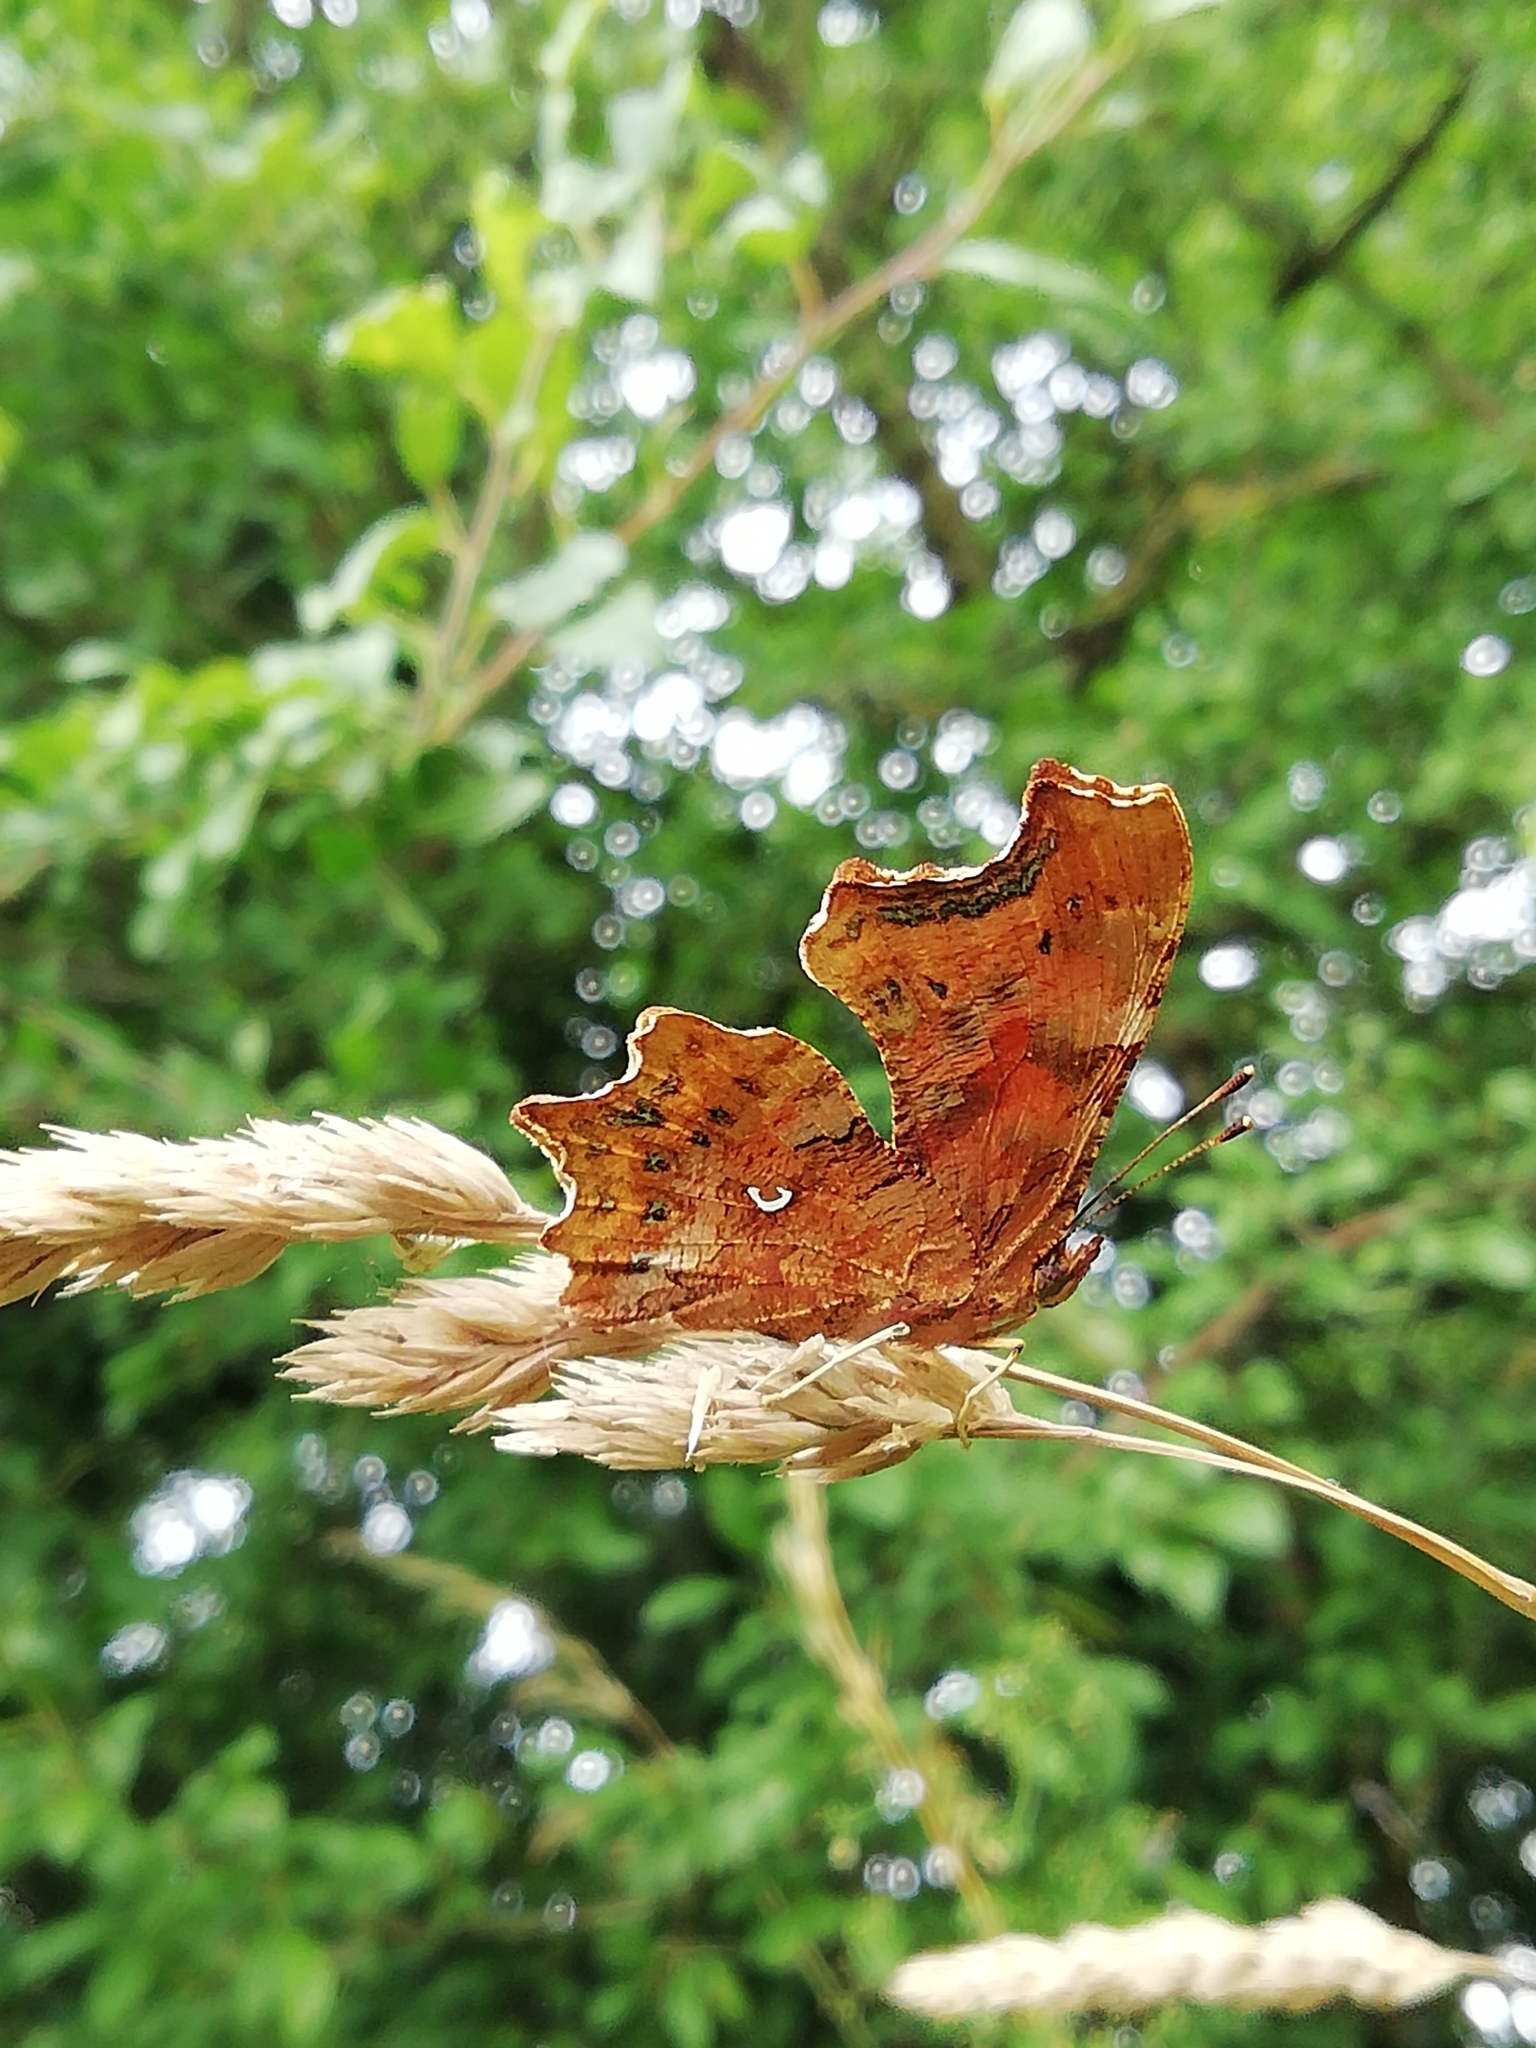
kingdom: Animalia
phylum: Arthropoda
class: Insecta
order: Lepidoptera
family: Nymphalidae
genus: Polygonia
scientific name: Polygonia c-album
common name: Comma
